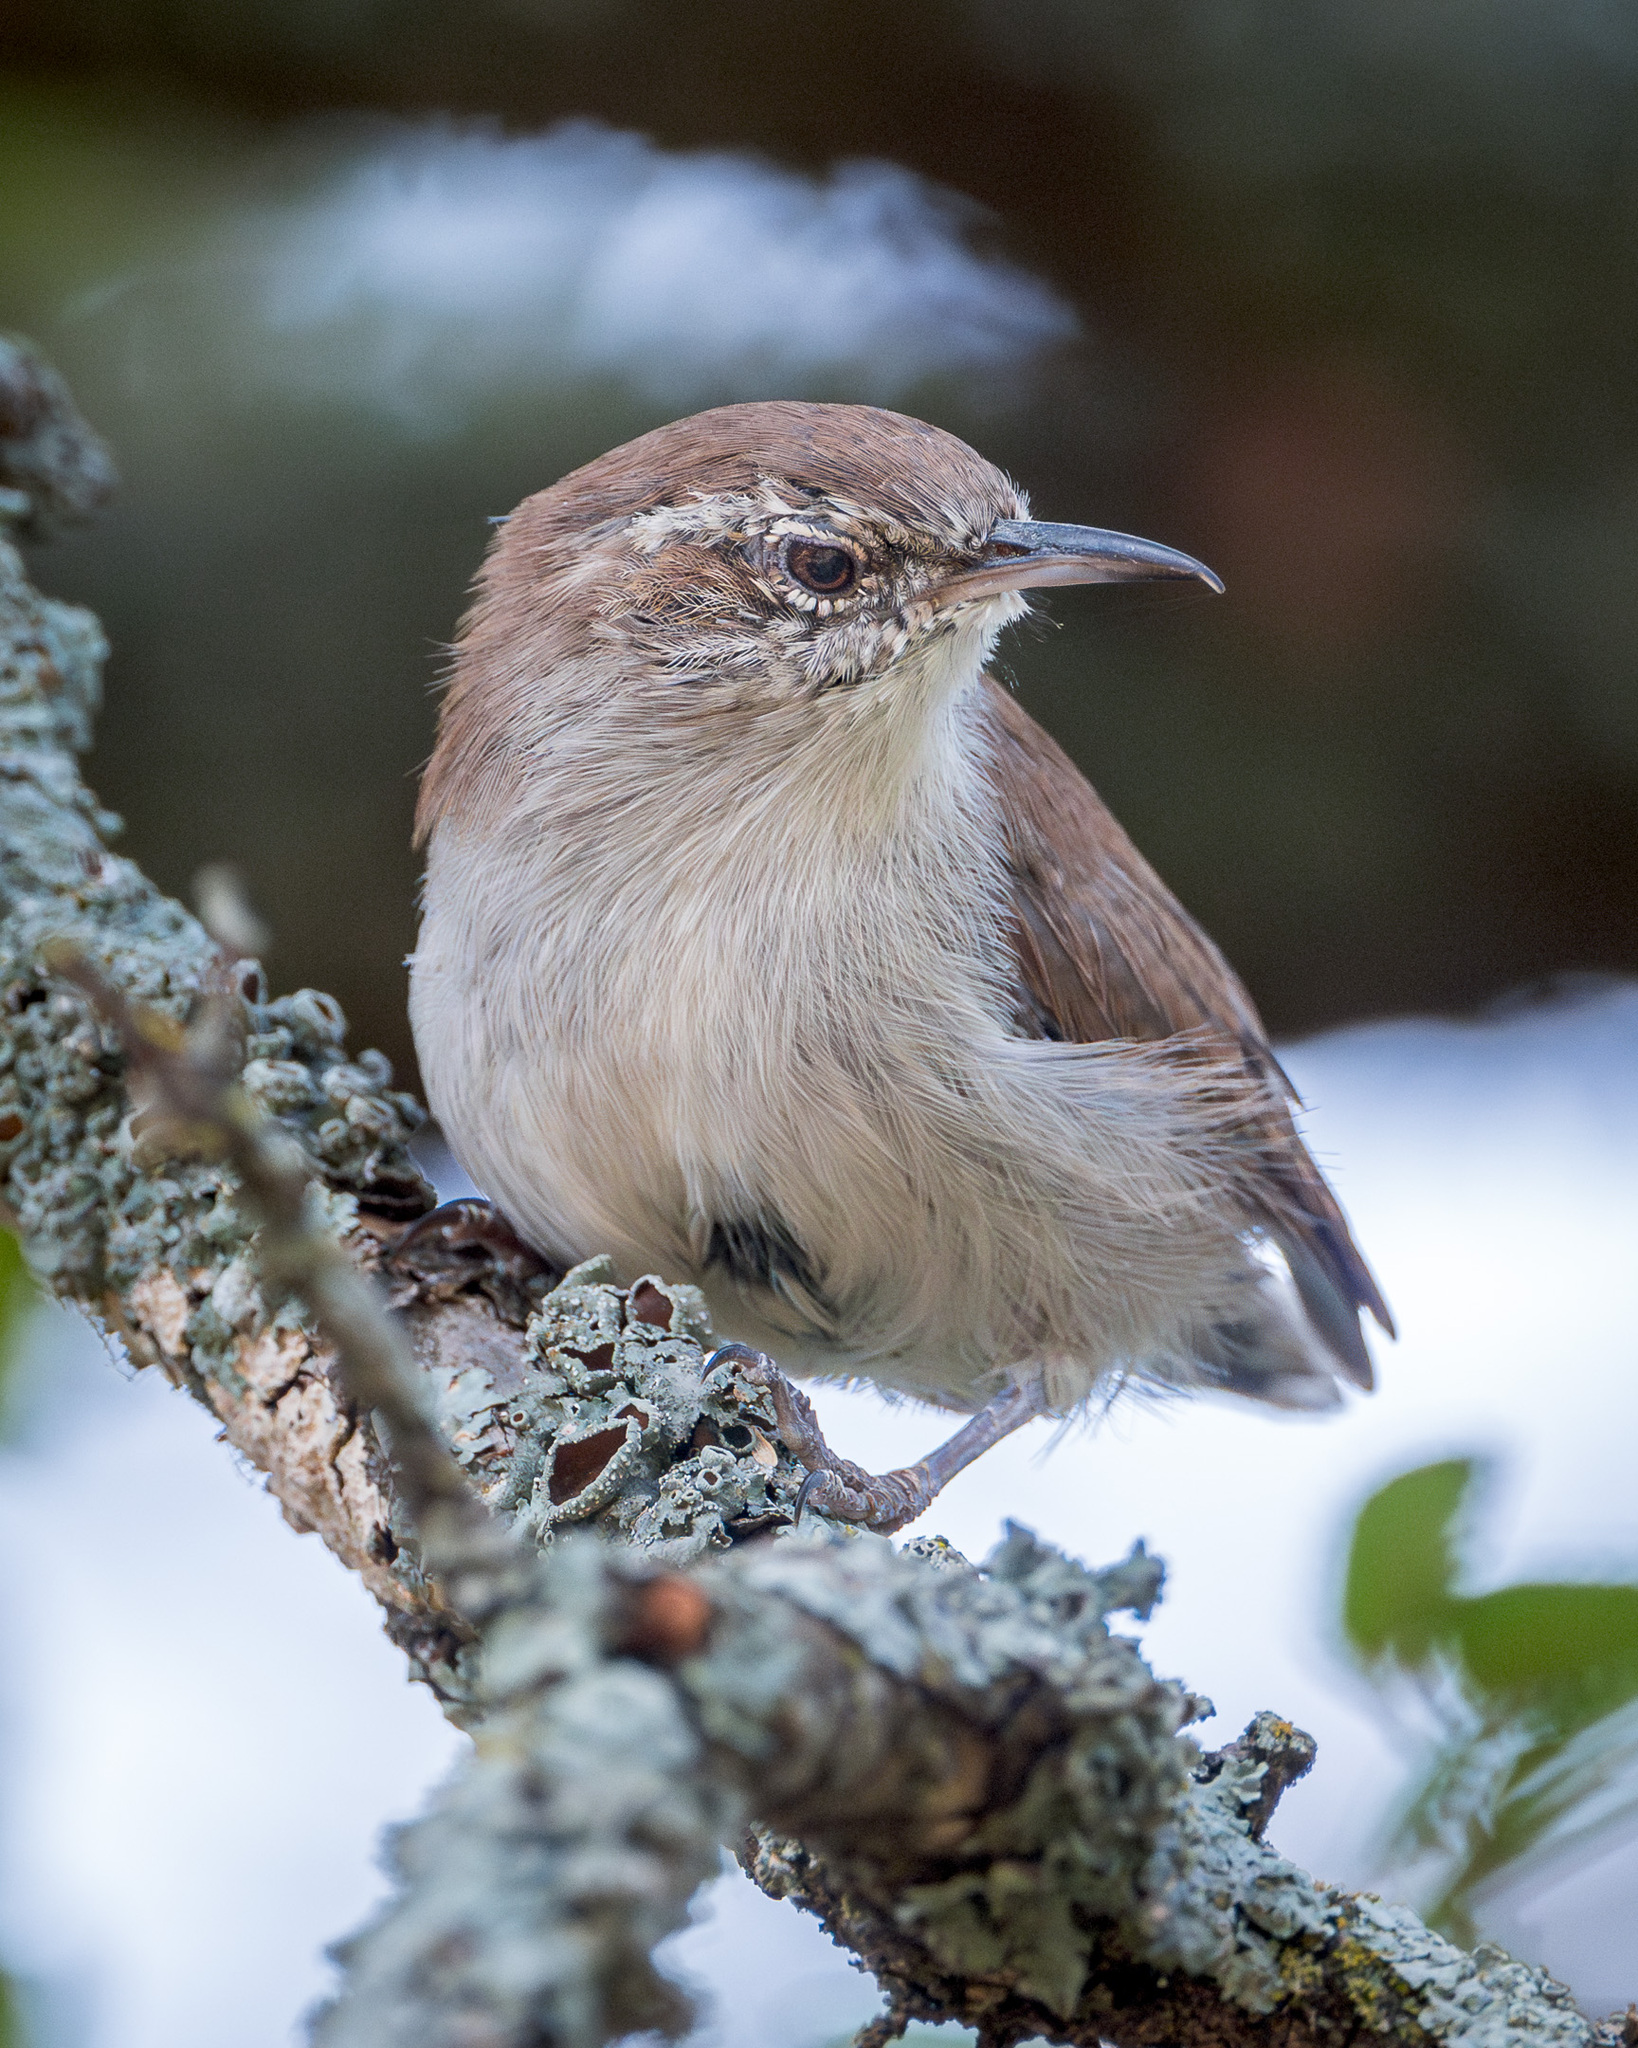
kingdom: Animalia
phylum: Chordata
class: Aves
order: Passeriformes
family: Troglodytidae
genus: Thryomanes
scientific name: Thryomanes bewickii
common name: Bewick's wren
